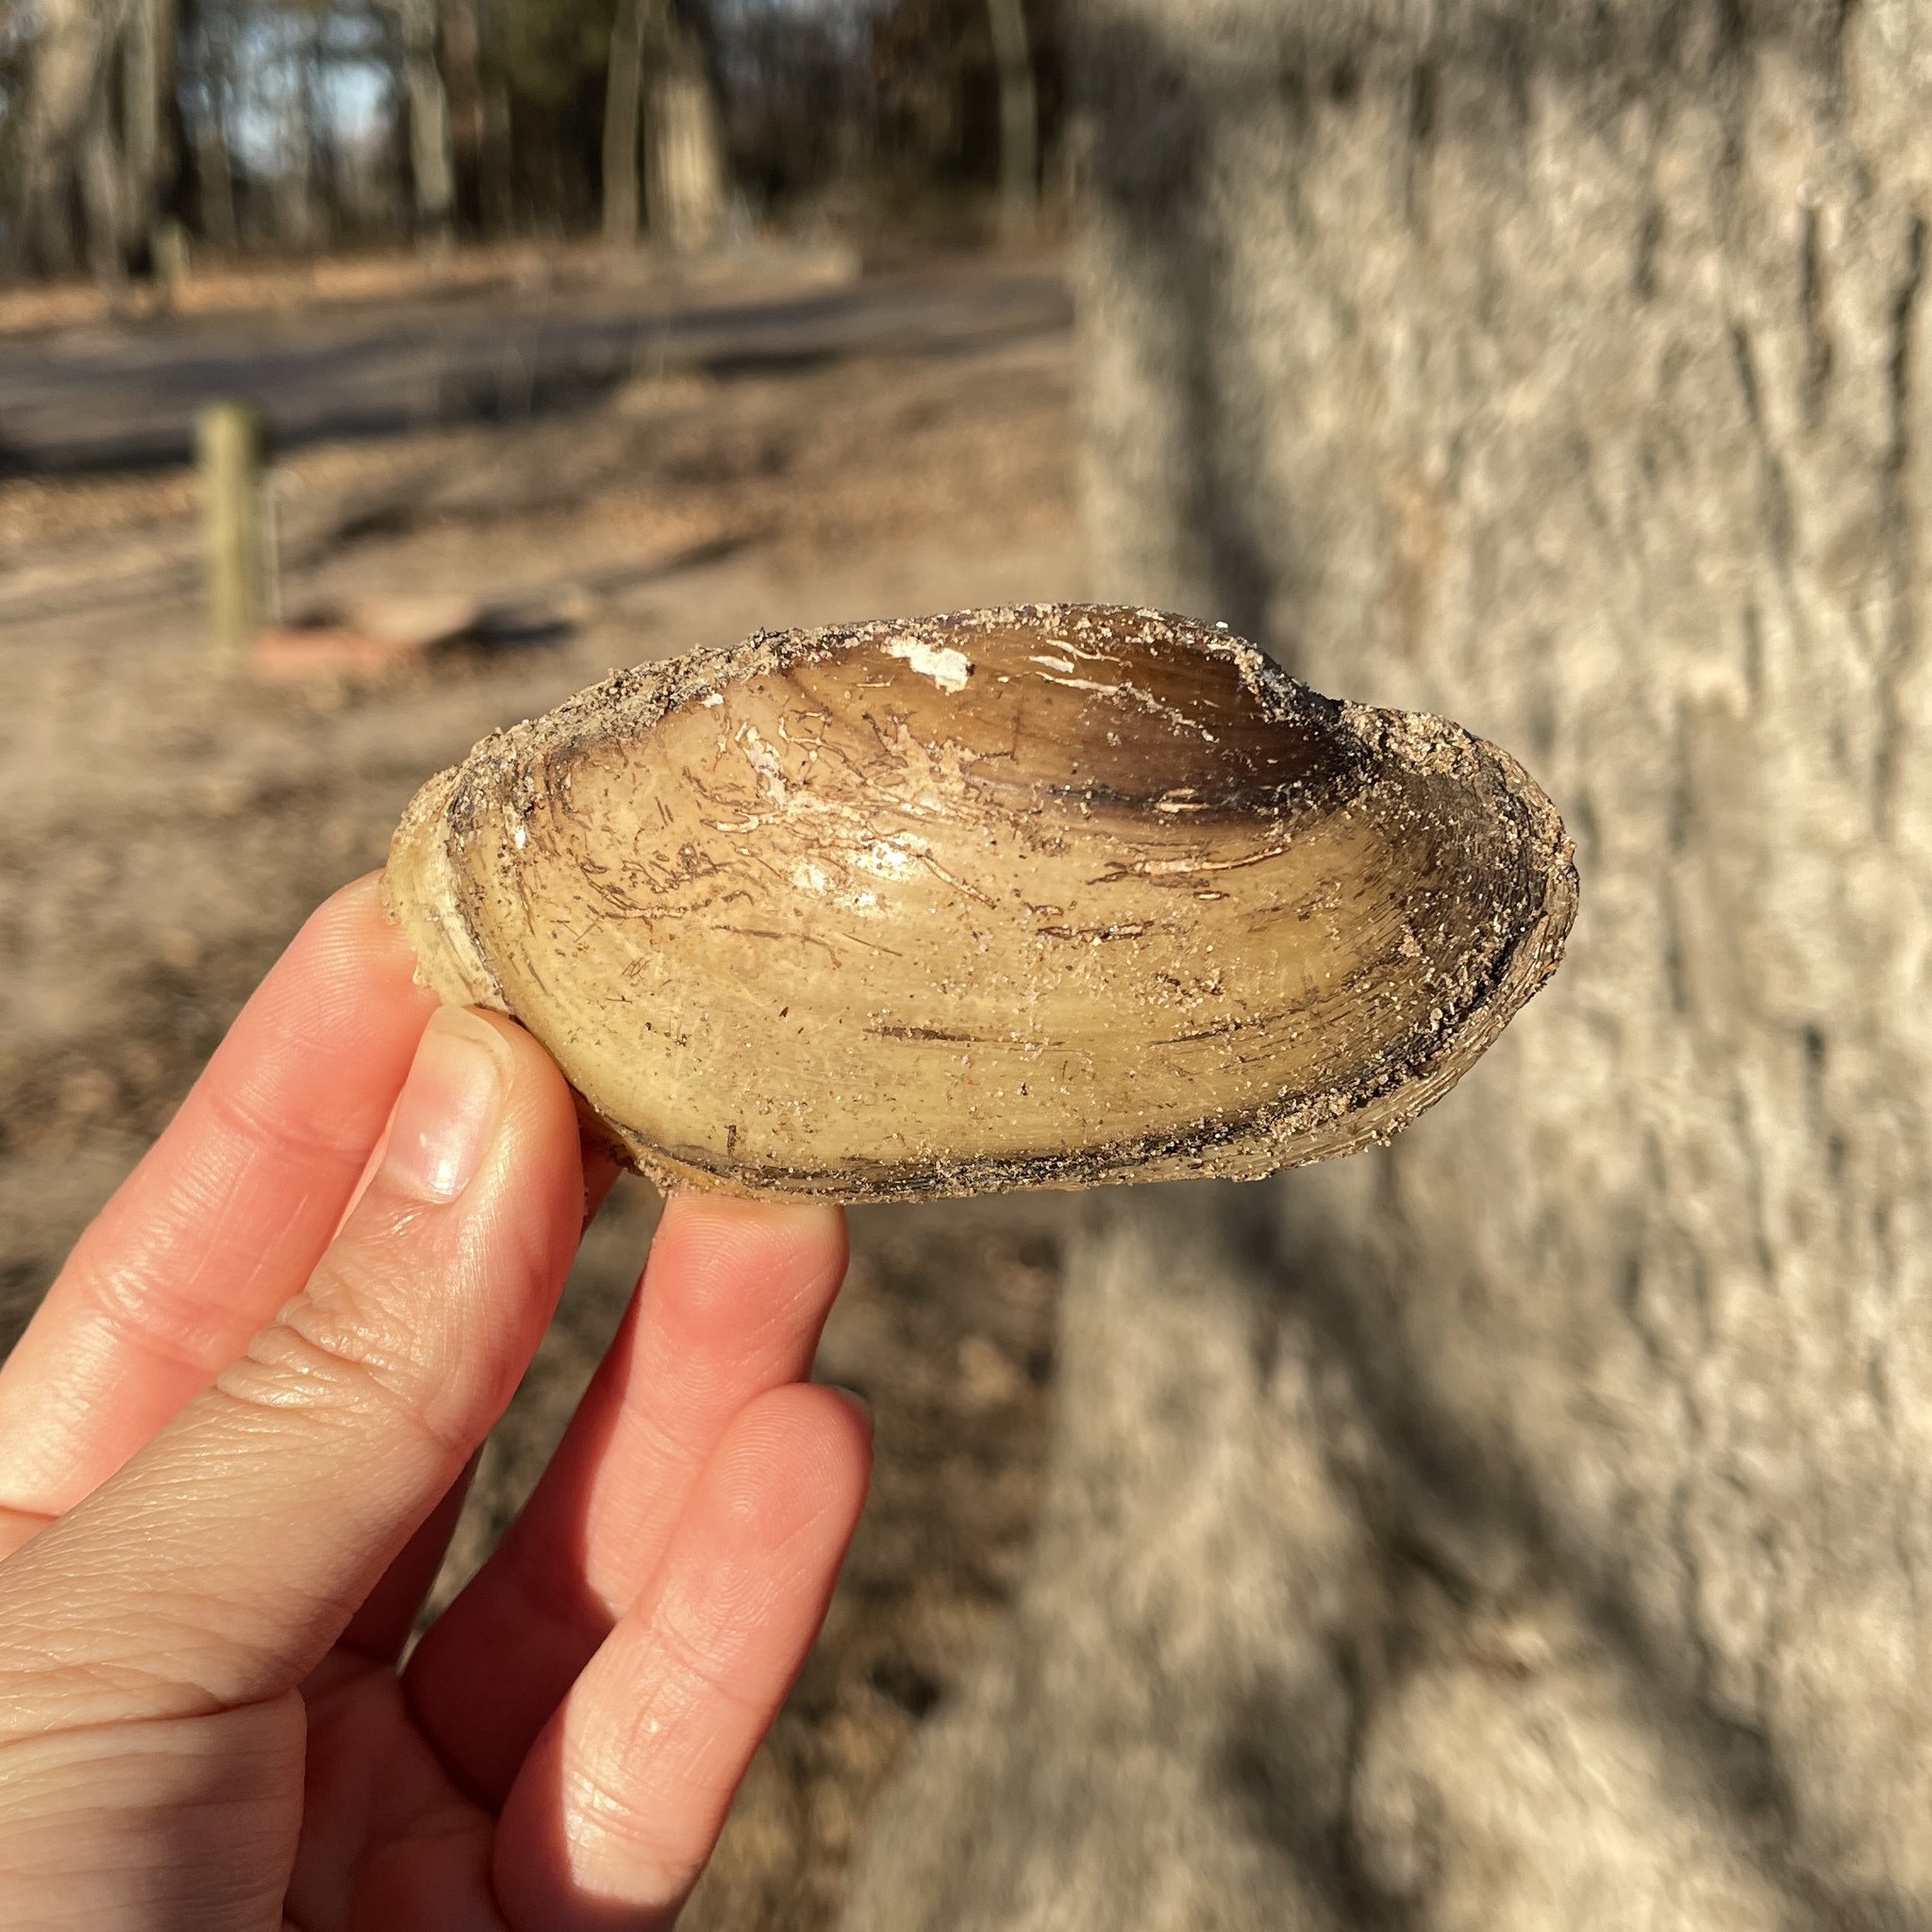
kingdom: Animalia
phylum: Mollusca
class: Bivalvia
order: Unionida
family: Unionidae
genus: Lampsilis
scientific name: Lampsilis teres
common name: Yellow sandshell
